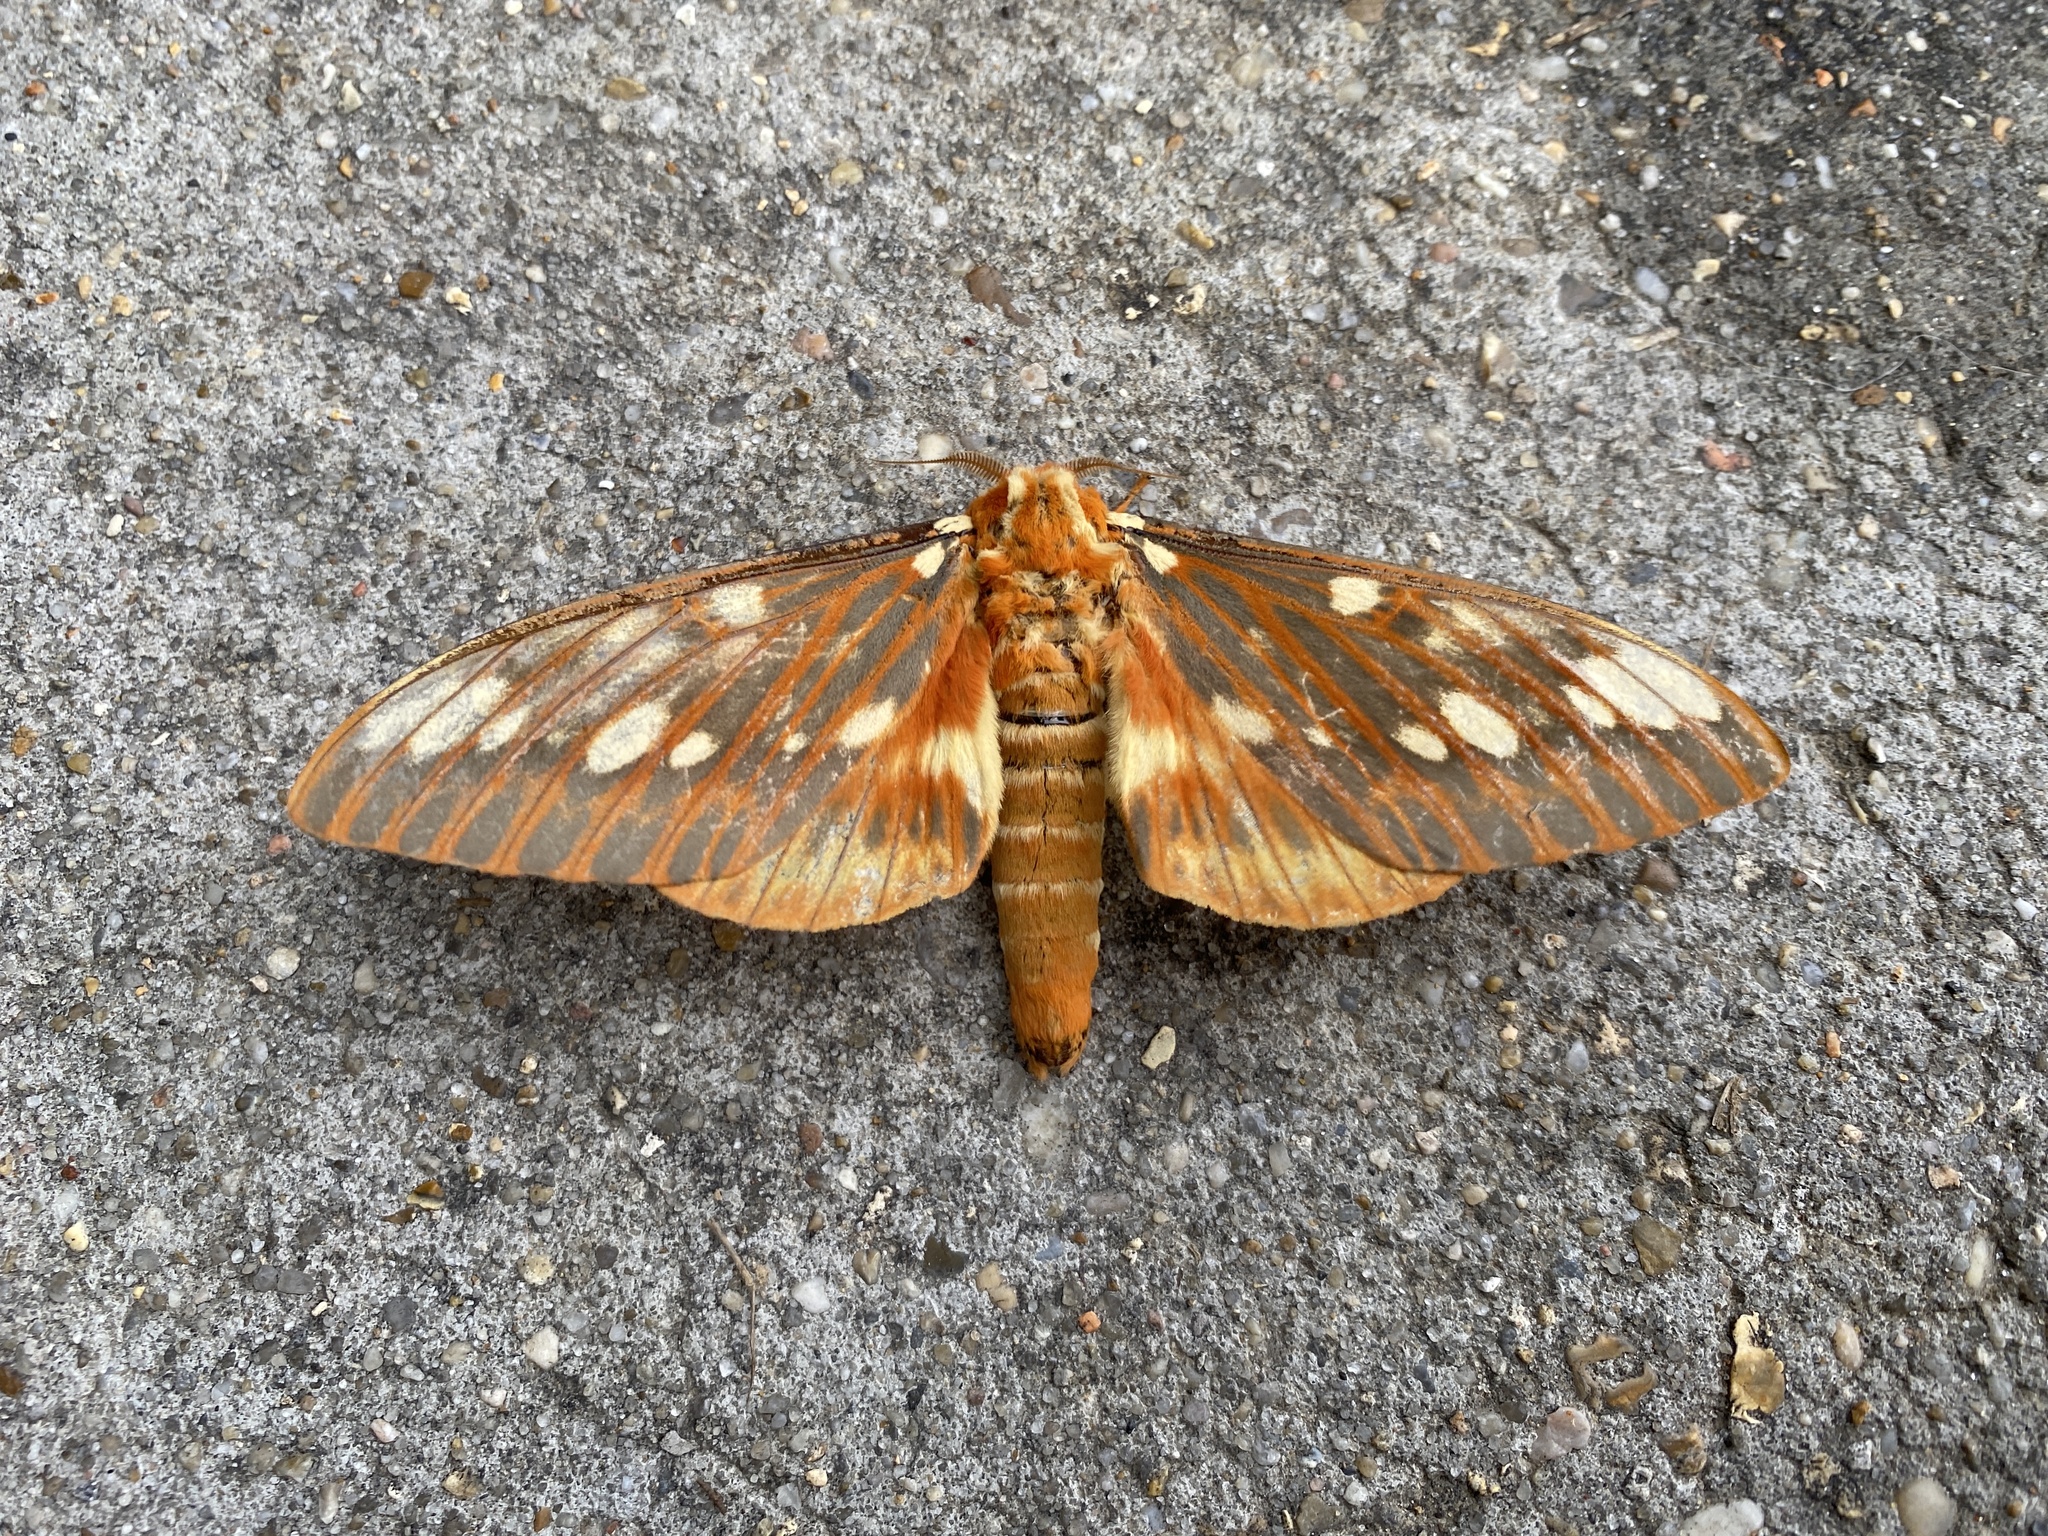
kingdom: Animalia
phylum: Arthropoda
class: Insecta
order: Lepidoptera
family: Saturniidae
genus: Citheronia
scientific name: Citheronia regalis
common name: Hickory horned devil
